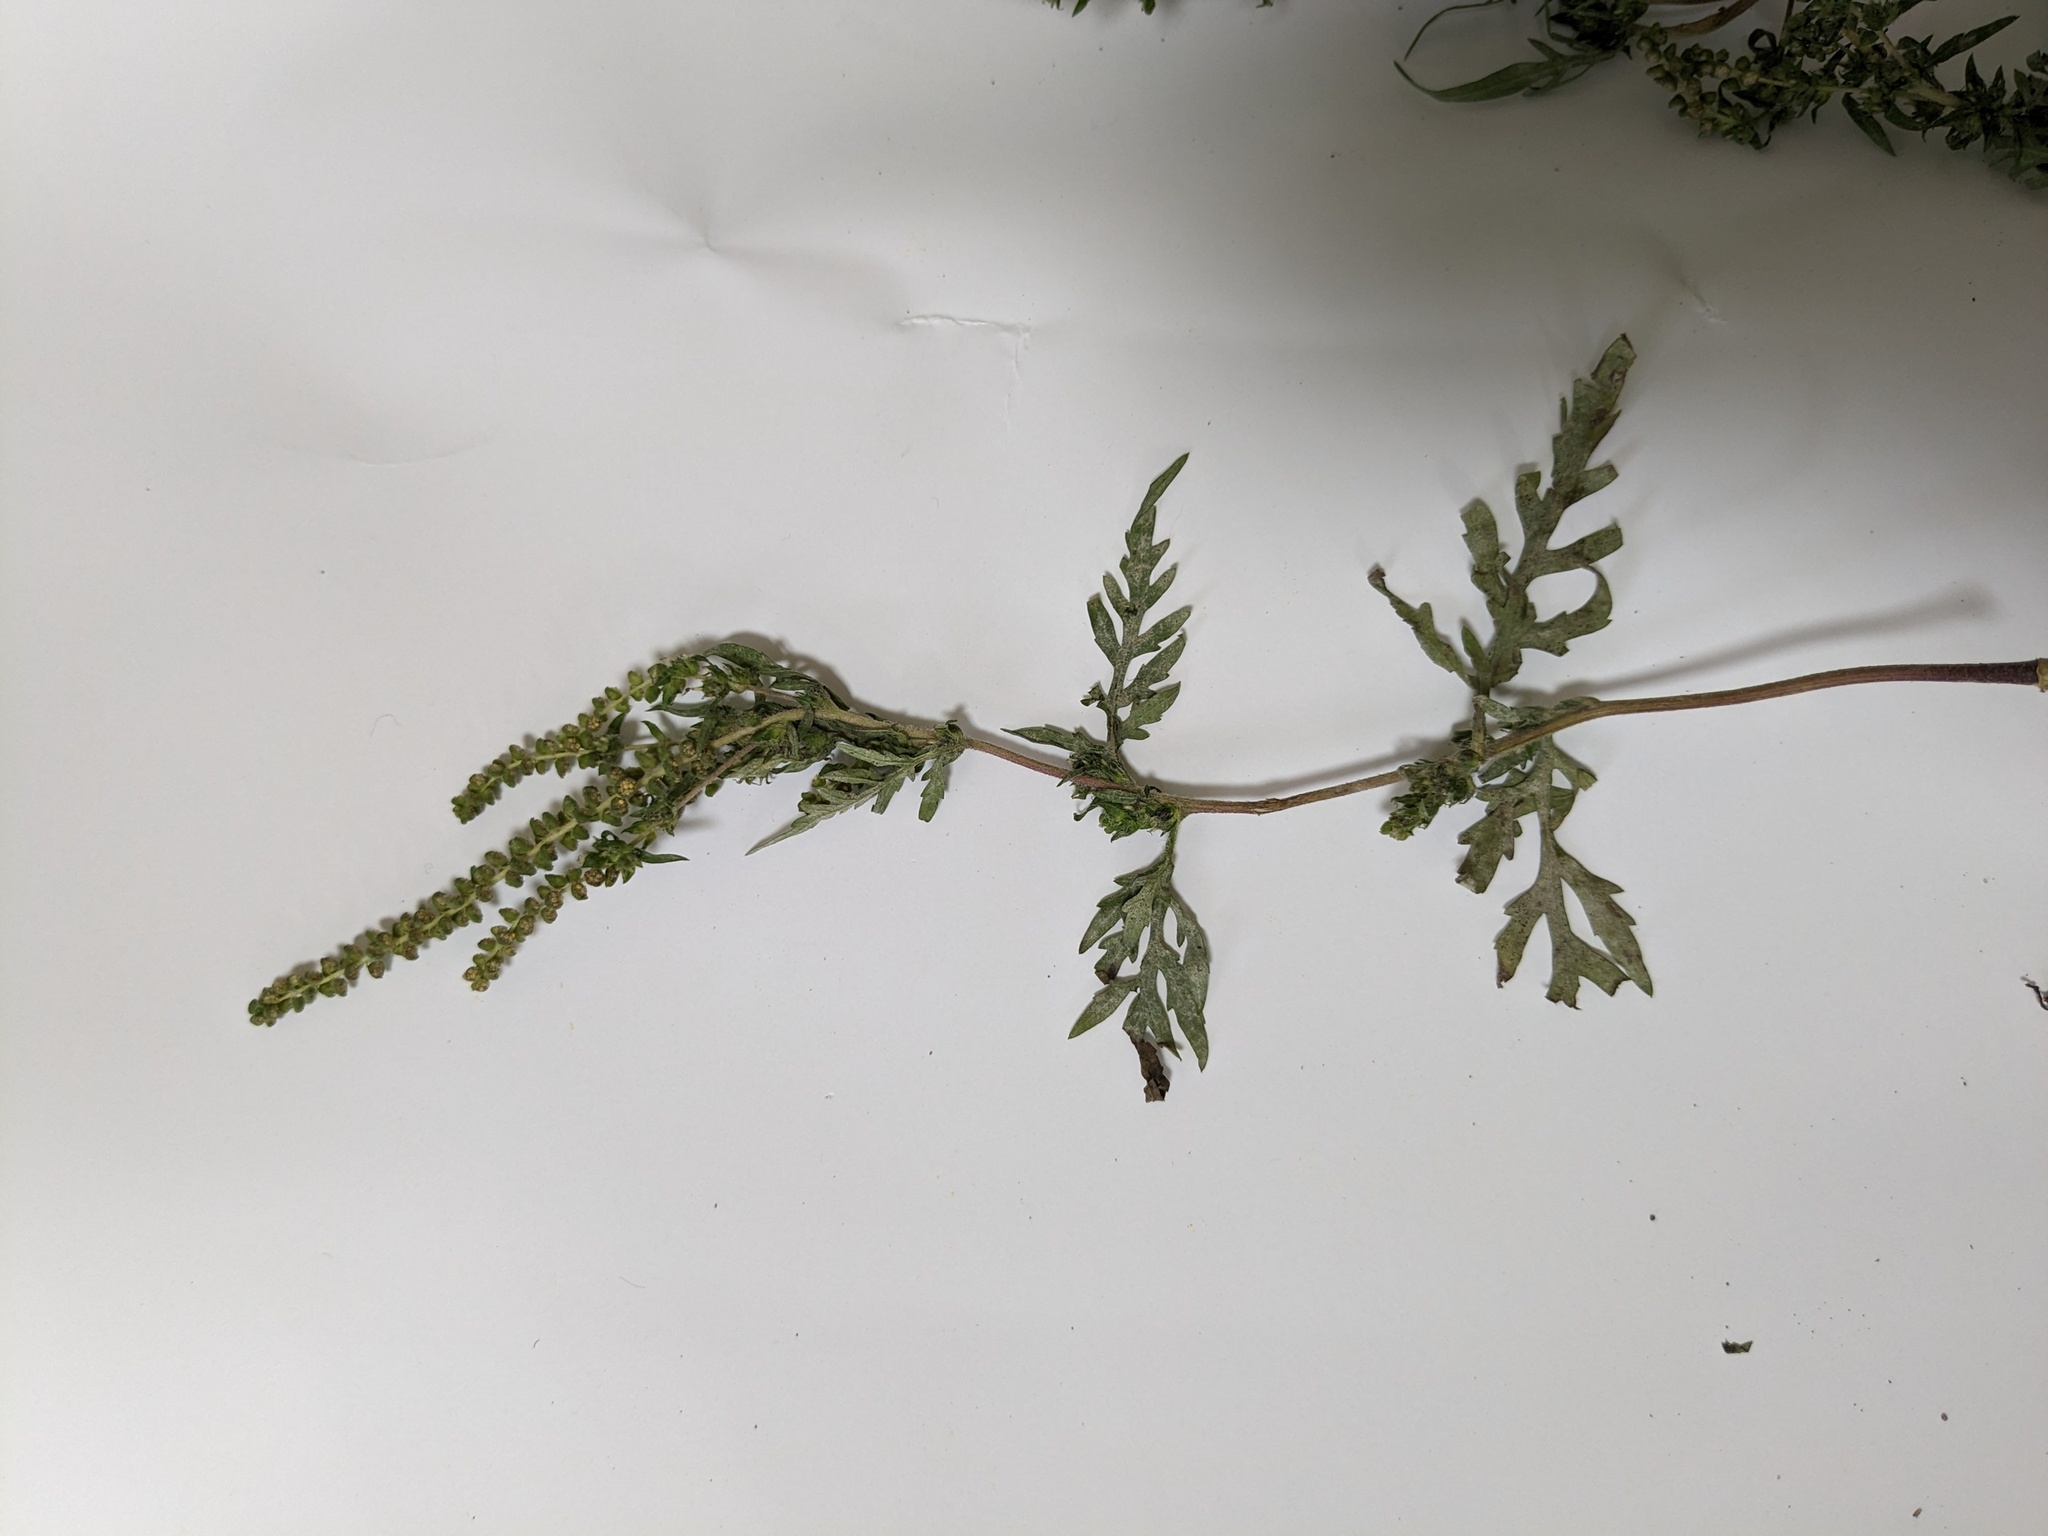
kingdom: Plantae
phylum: Tracheophyta
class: Magnoliopsida
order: Asterales
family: Asteraceae
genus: Ambrosia
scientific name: Ambrosia artemisiifolia
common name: Annual ragweed
